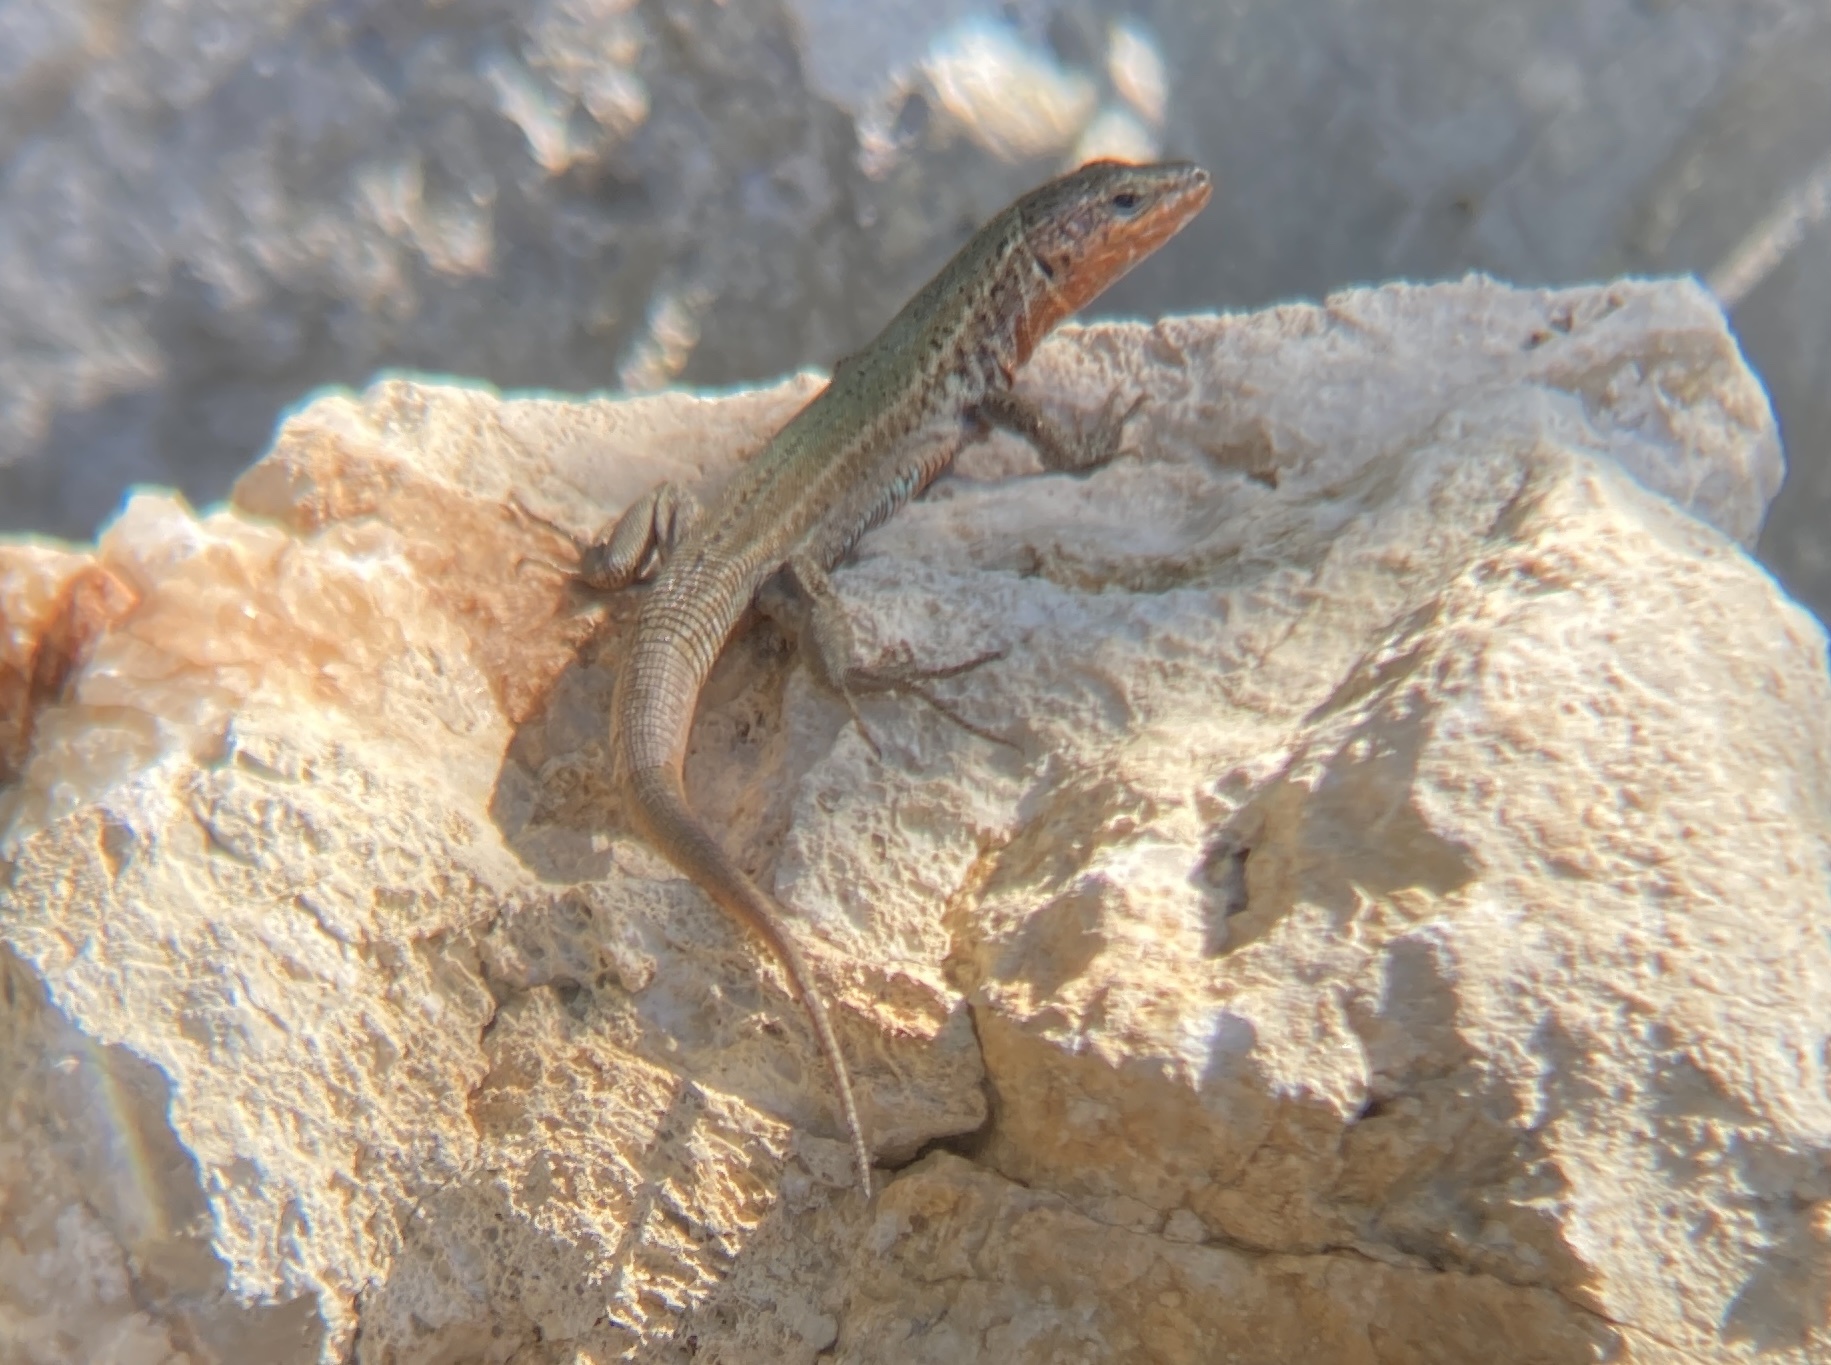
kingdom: Animalia
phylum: Chordata
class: Squamata
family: Lacertidae
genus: Podarcis
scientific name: Podarcis melisellensis
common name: Dalmatian wall lizard
